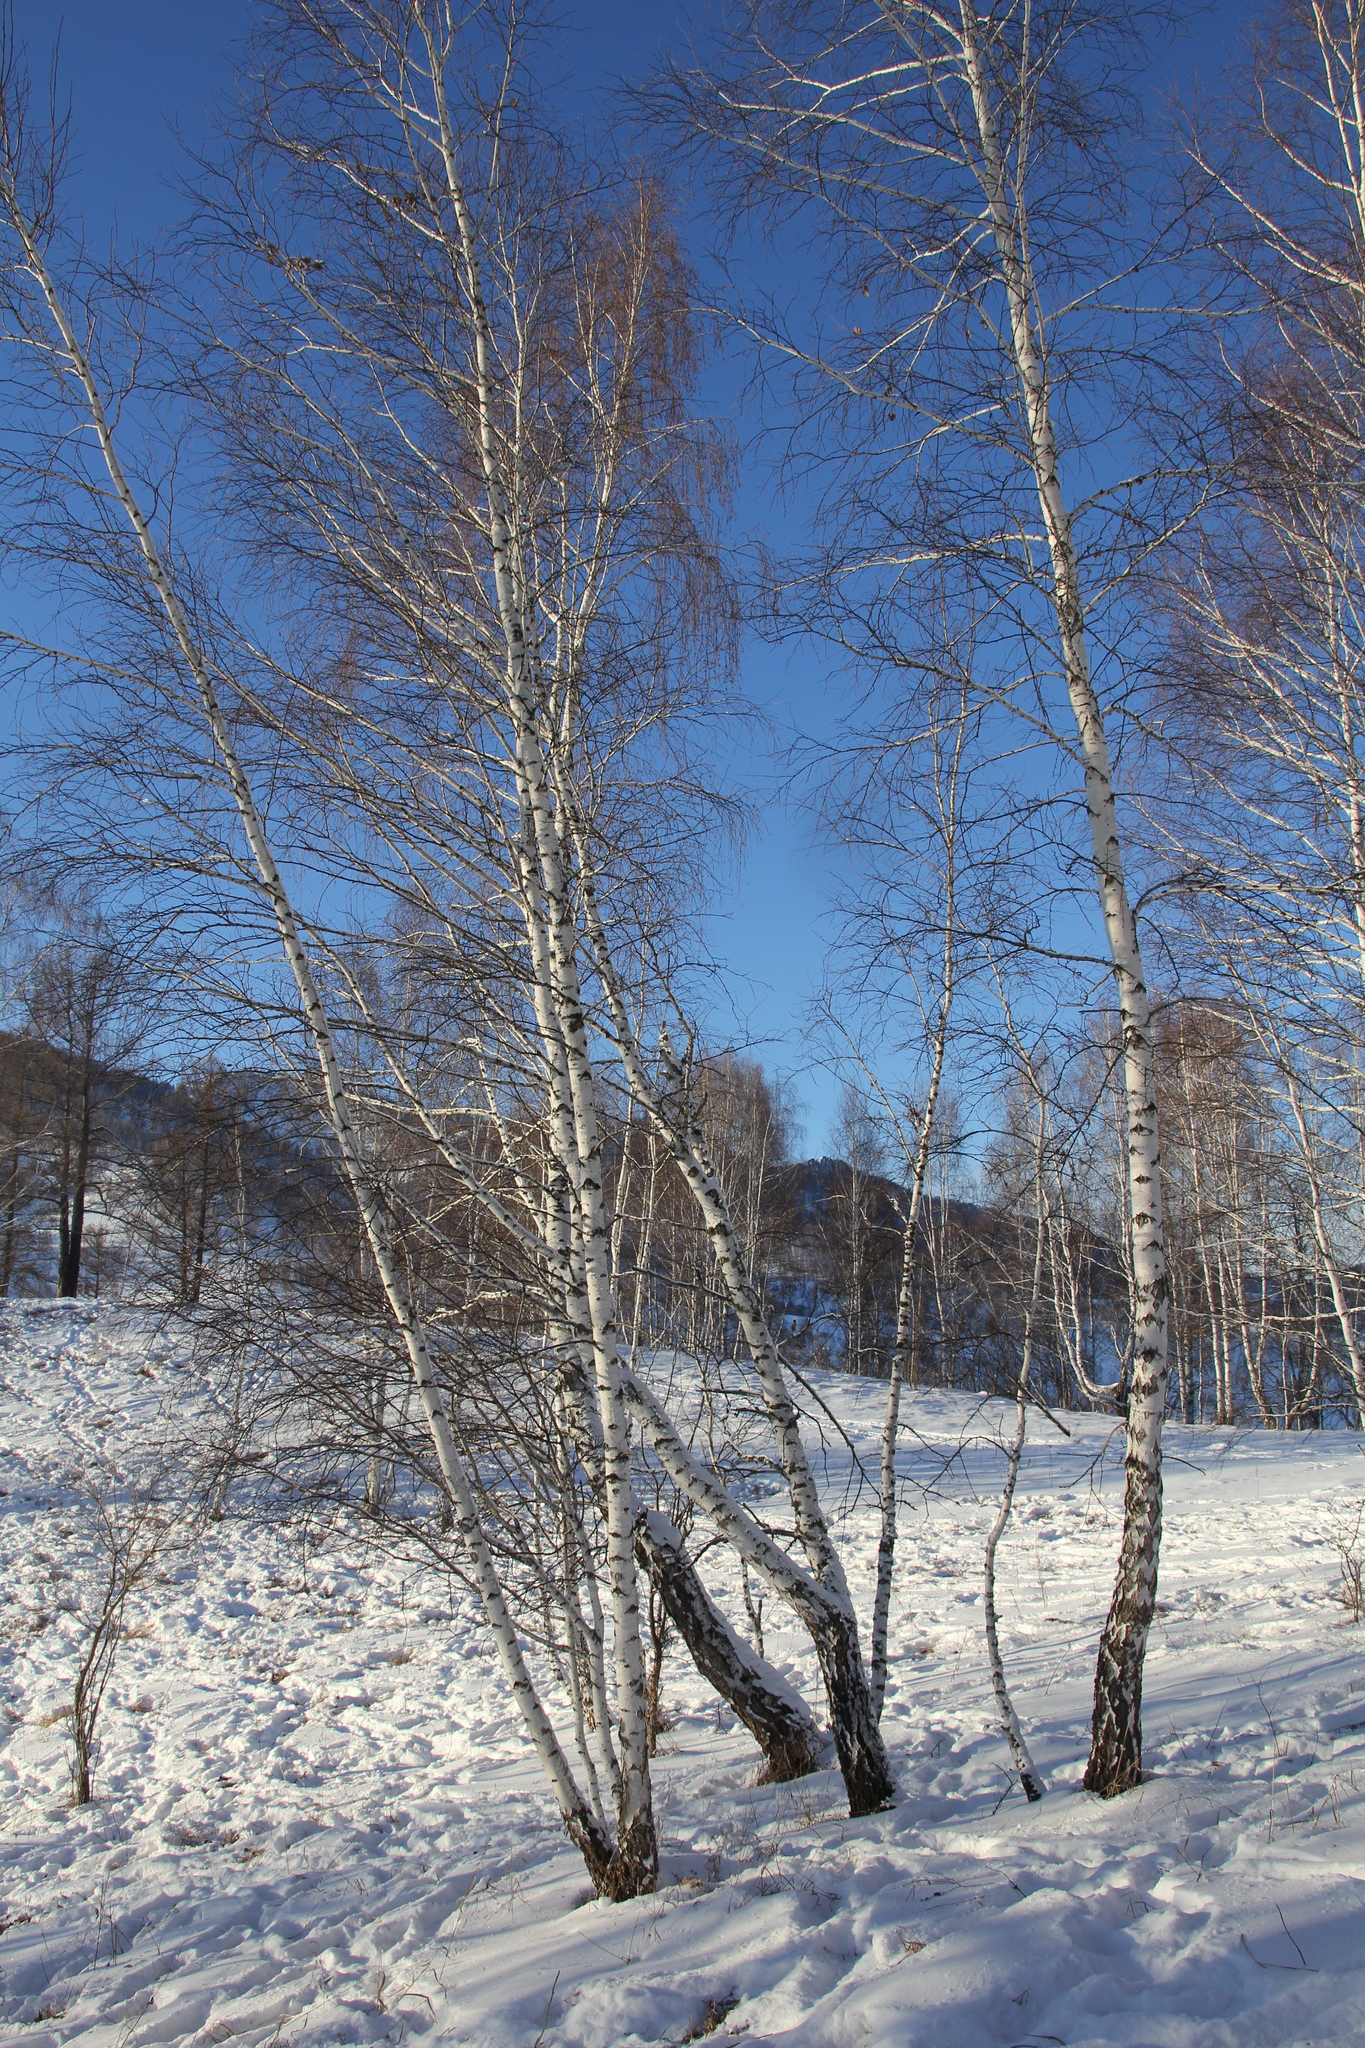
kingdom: Plantae
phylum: Tracheophyta
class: Magnoliopsida
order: Fagales
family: Betulaceae
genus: Betula
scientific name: Betula pendula
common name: Silver birch
